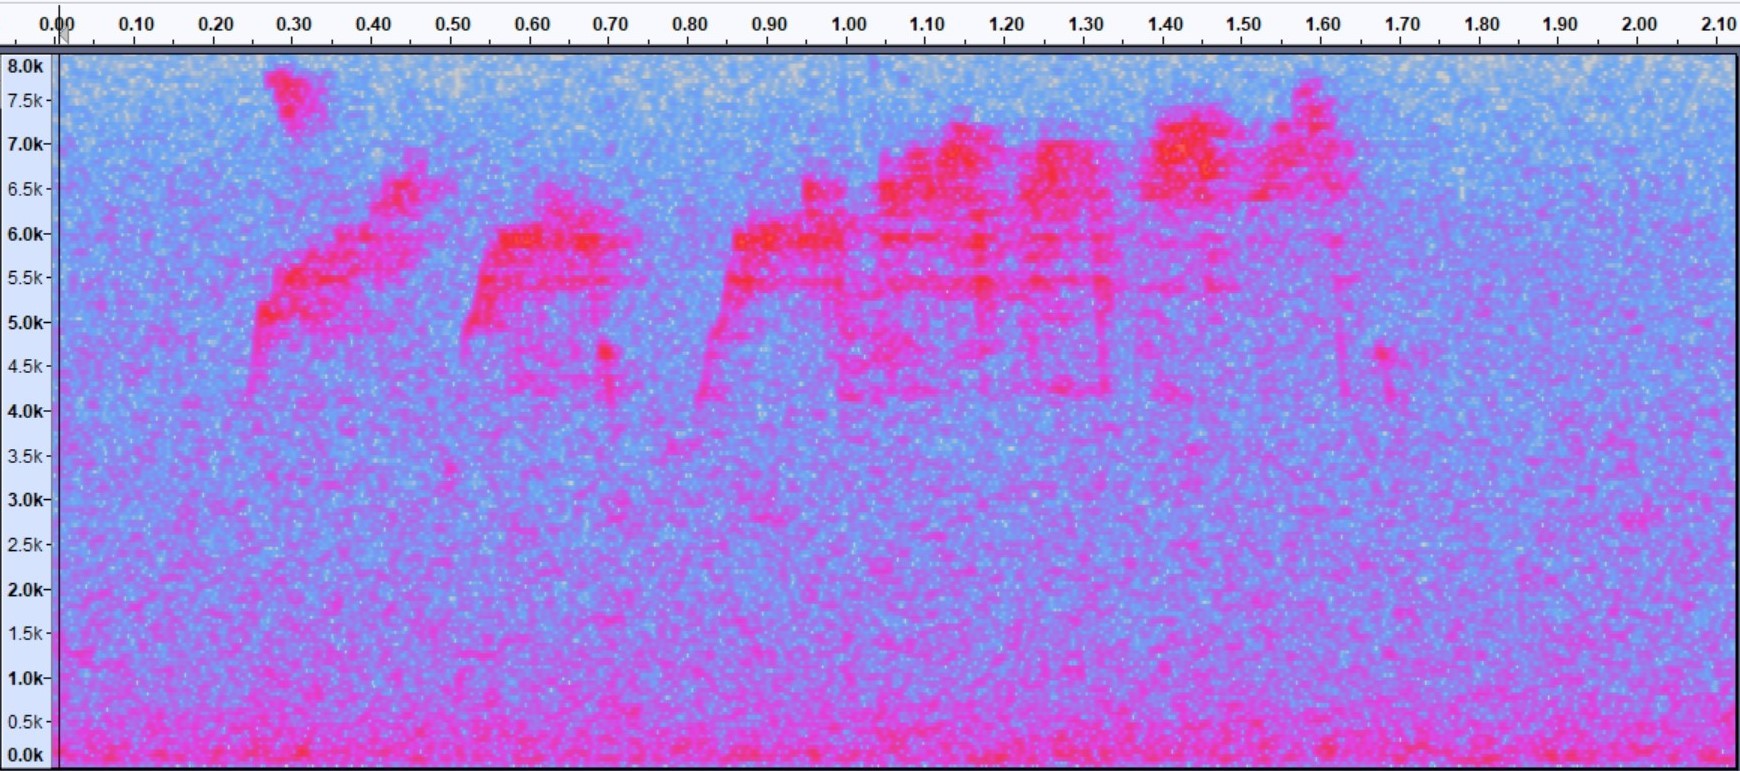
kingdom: Animalia
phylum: Chordata
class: Aves
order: Passeriformes
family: Parulidae
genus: Setophaga
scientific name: Setophaga americana
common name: Northern parula
